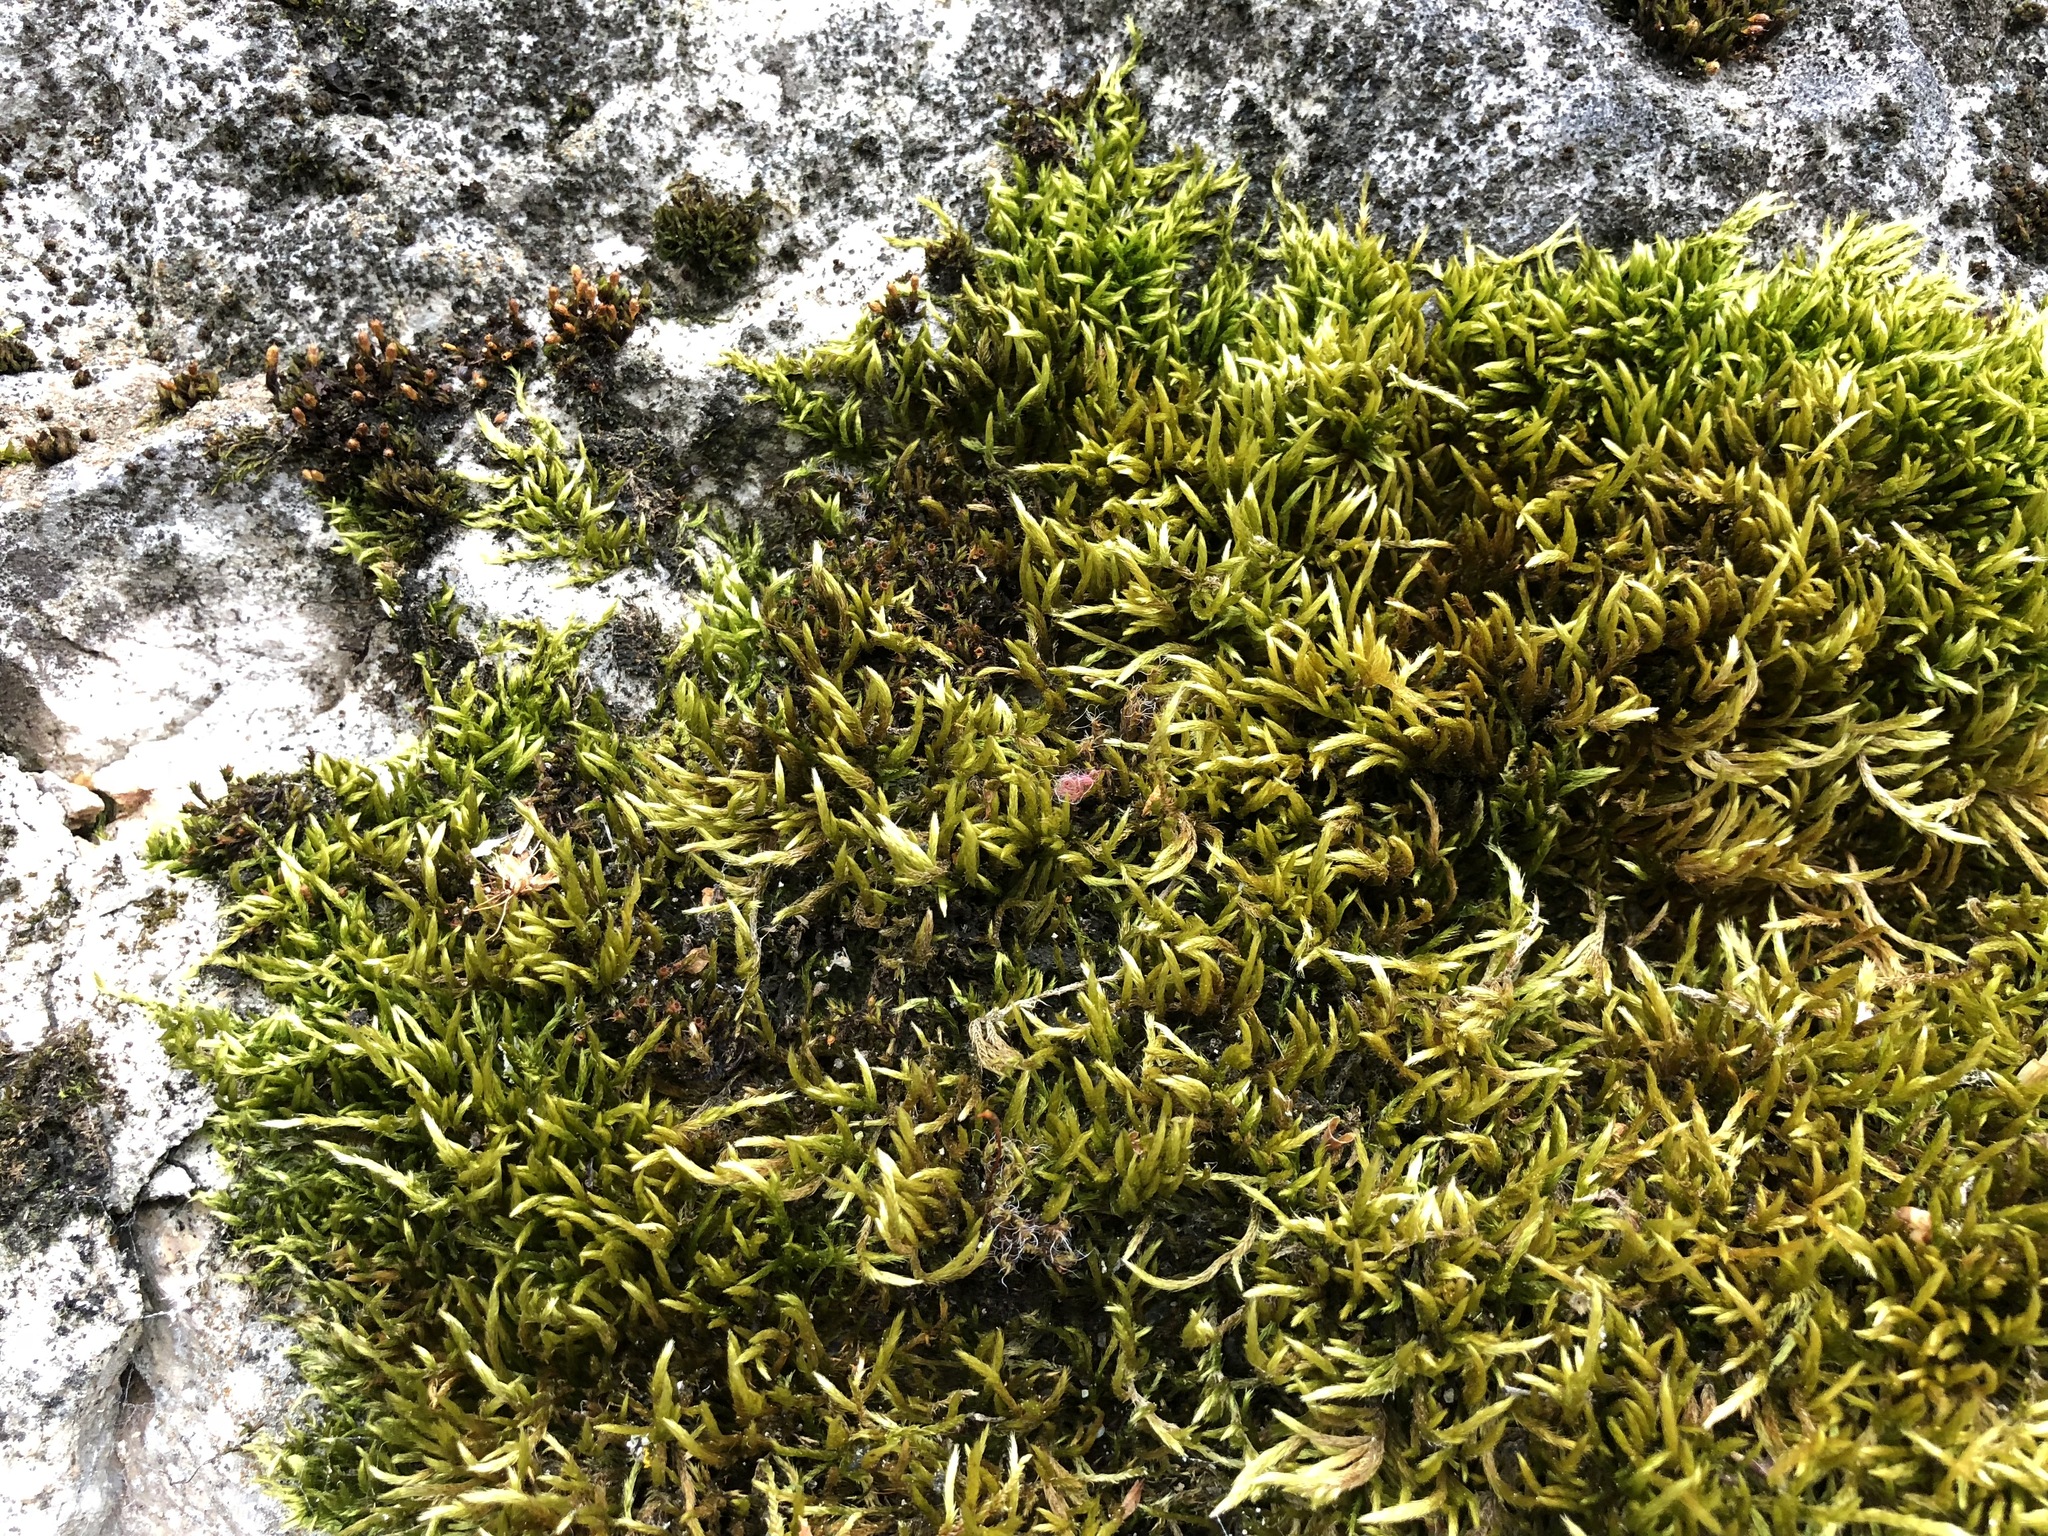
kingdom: Plantae
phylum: Bryophyta
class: Bryopsida
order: Hypnales
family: Brachytheciaceae
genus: Homalothecium
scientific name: Homalothecium sericeum
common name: Silky wall feather-moss
